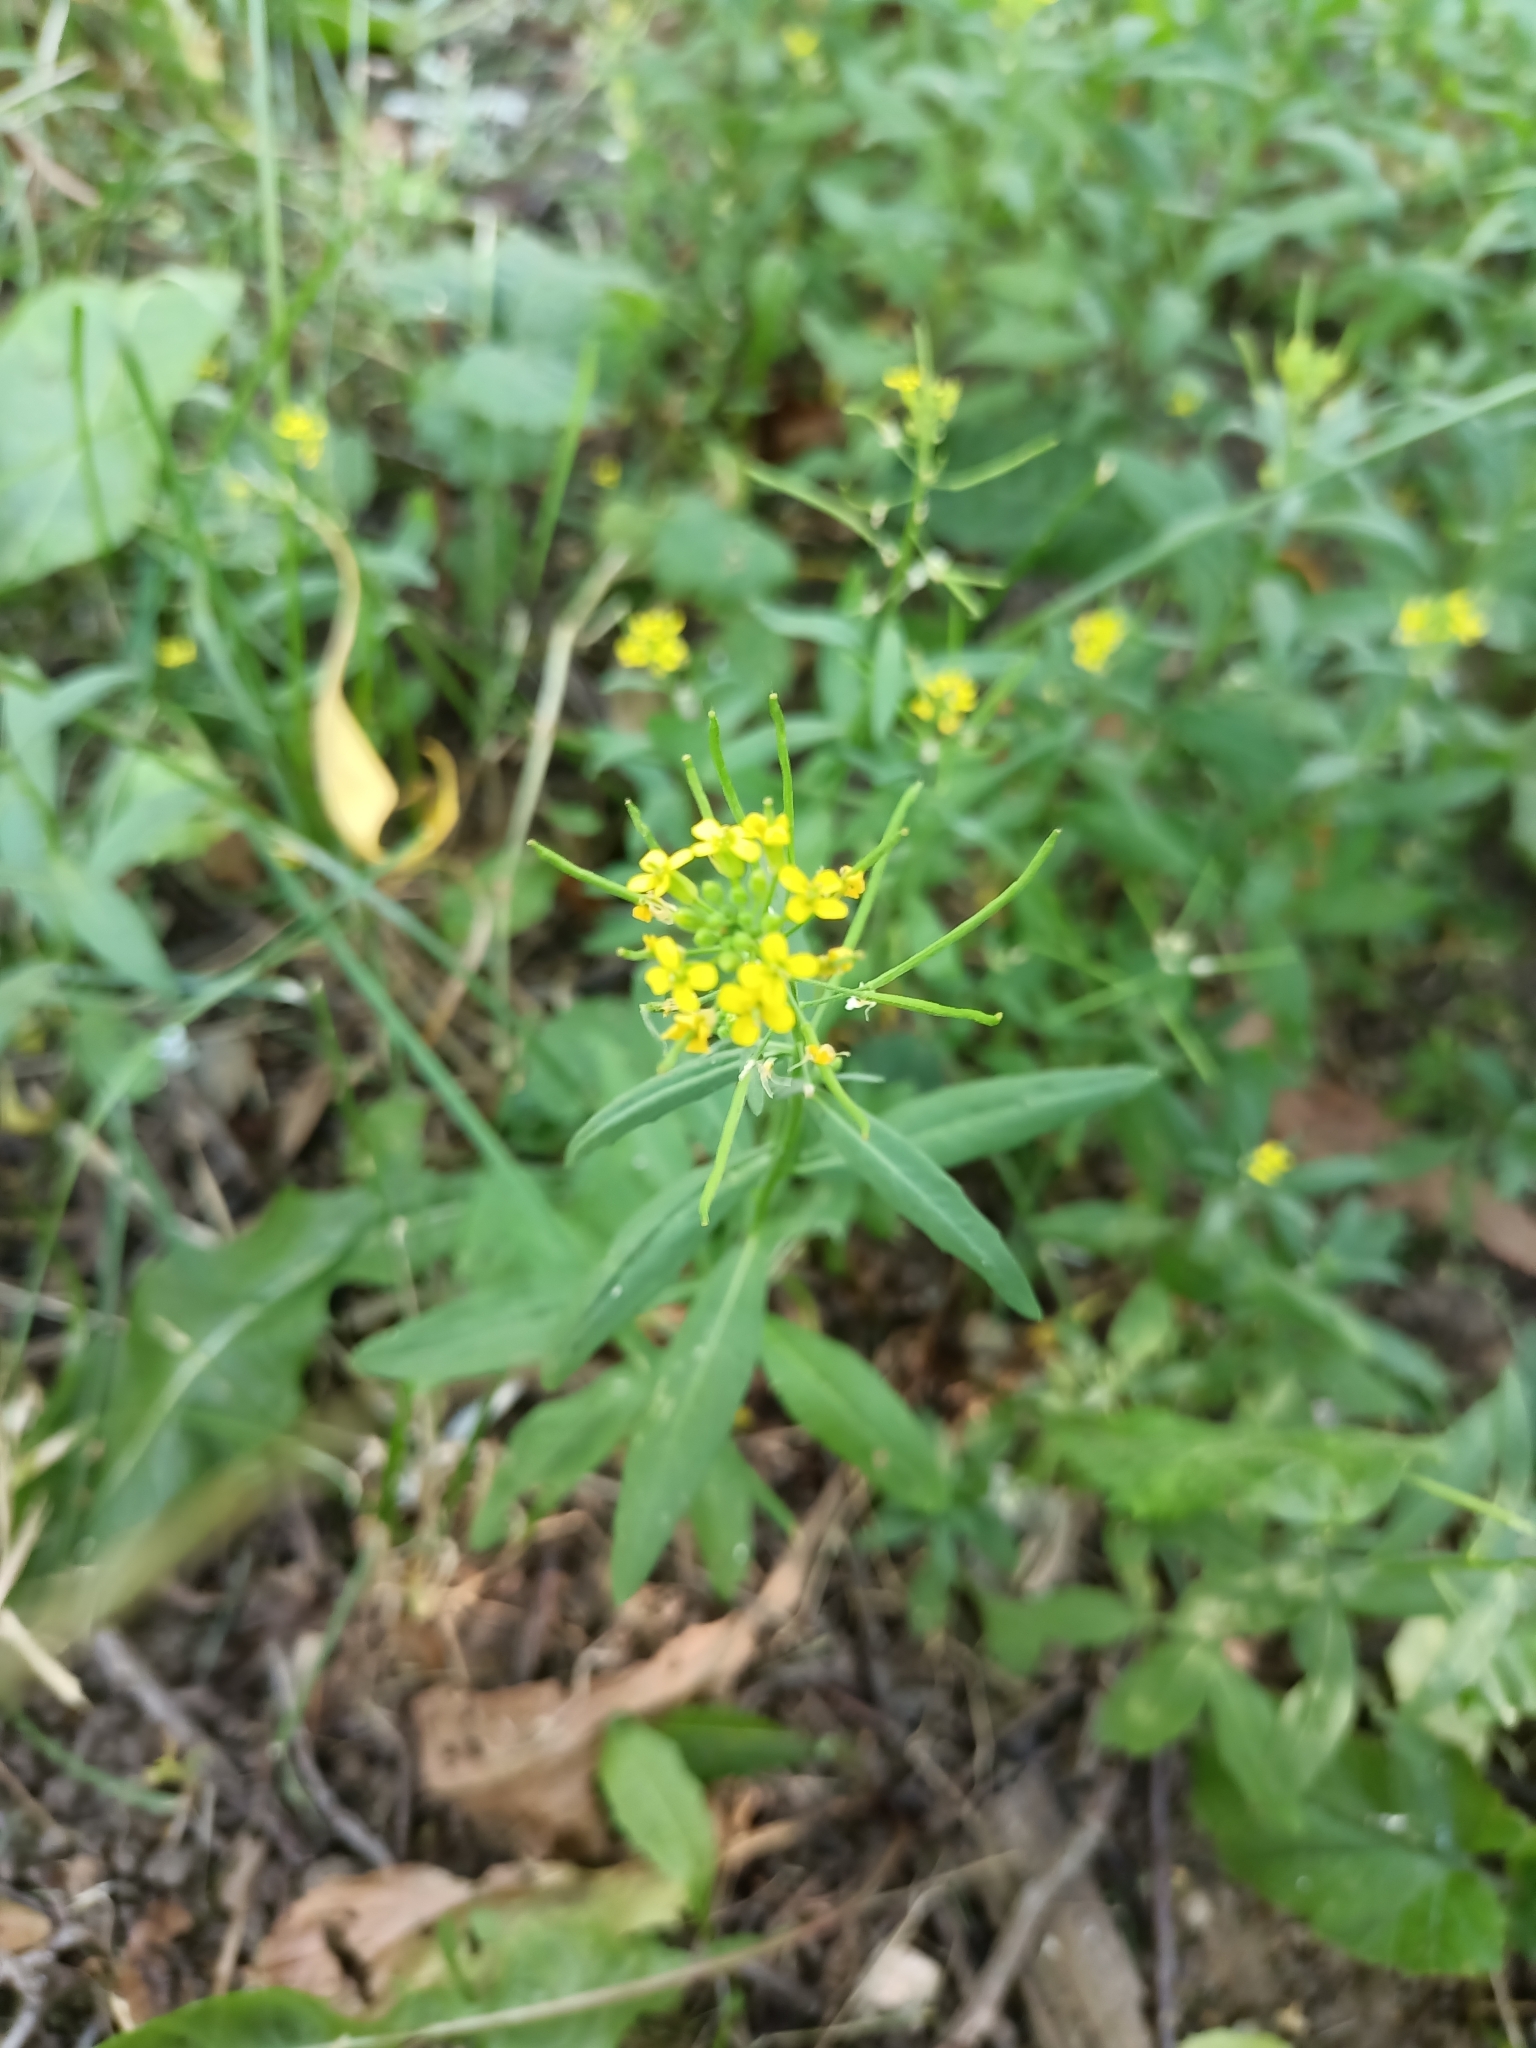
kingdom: Plantae
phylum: Tracheophyta
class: Magnoliopsida
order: Brassicales
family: Brassicaceae
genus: Erysimum
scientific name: Erysimum cheiranthoides
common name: Treacle mustard
